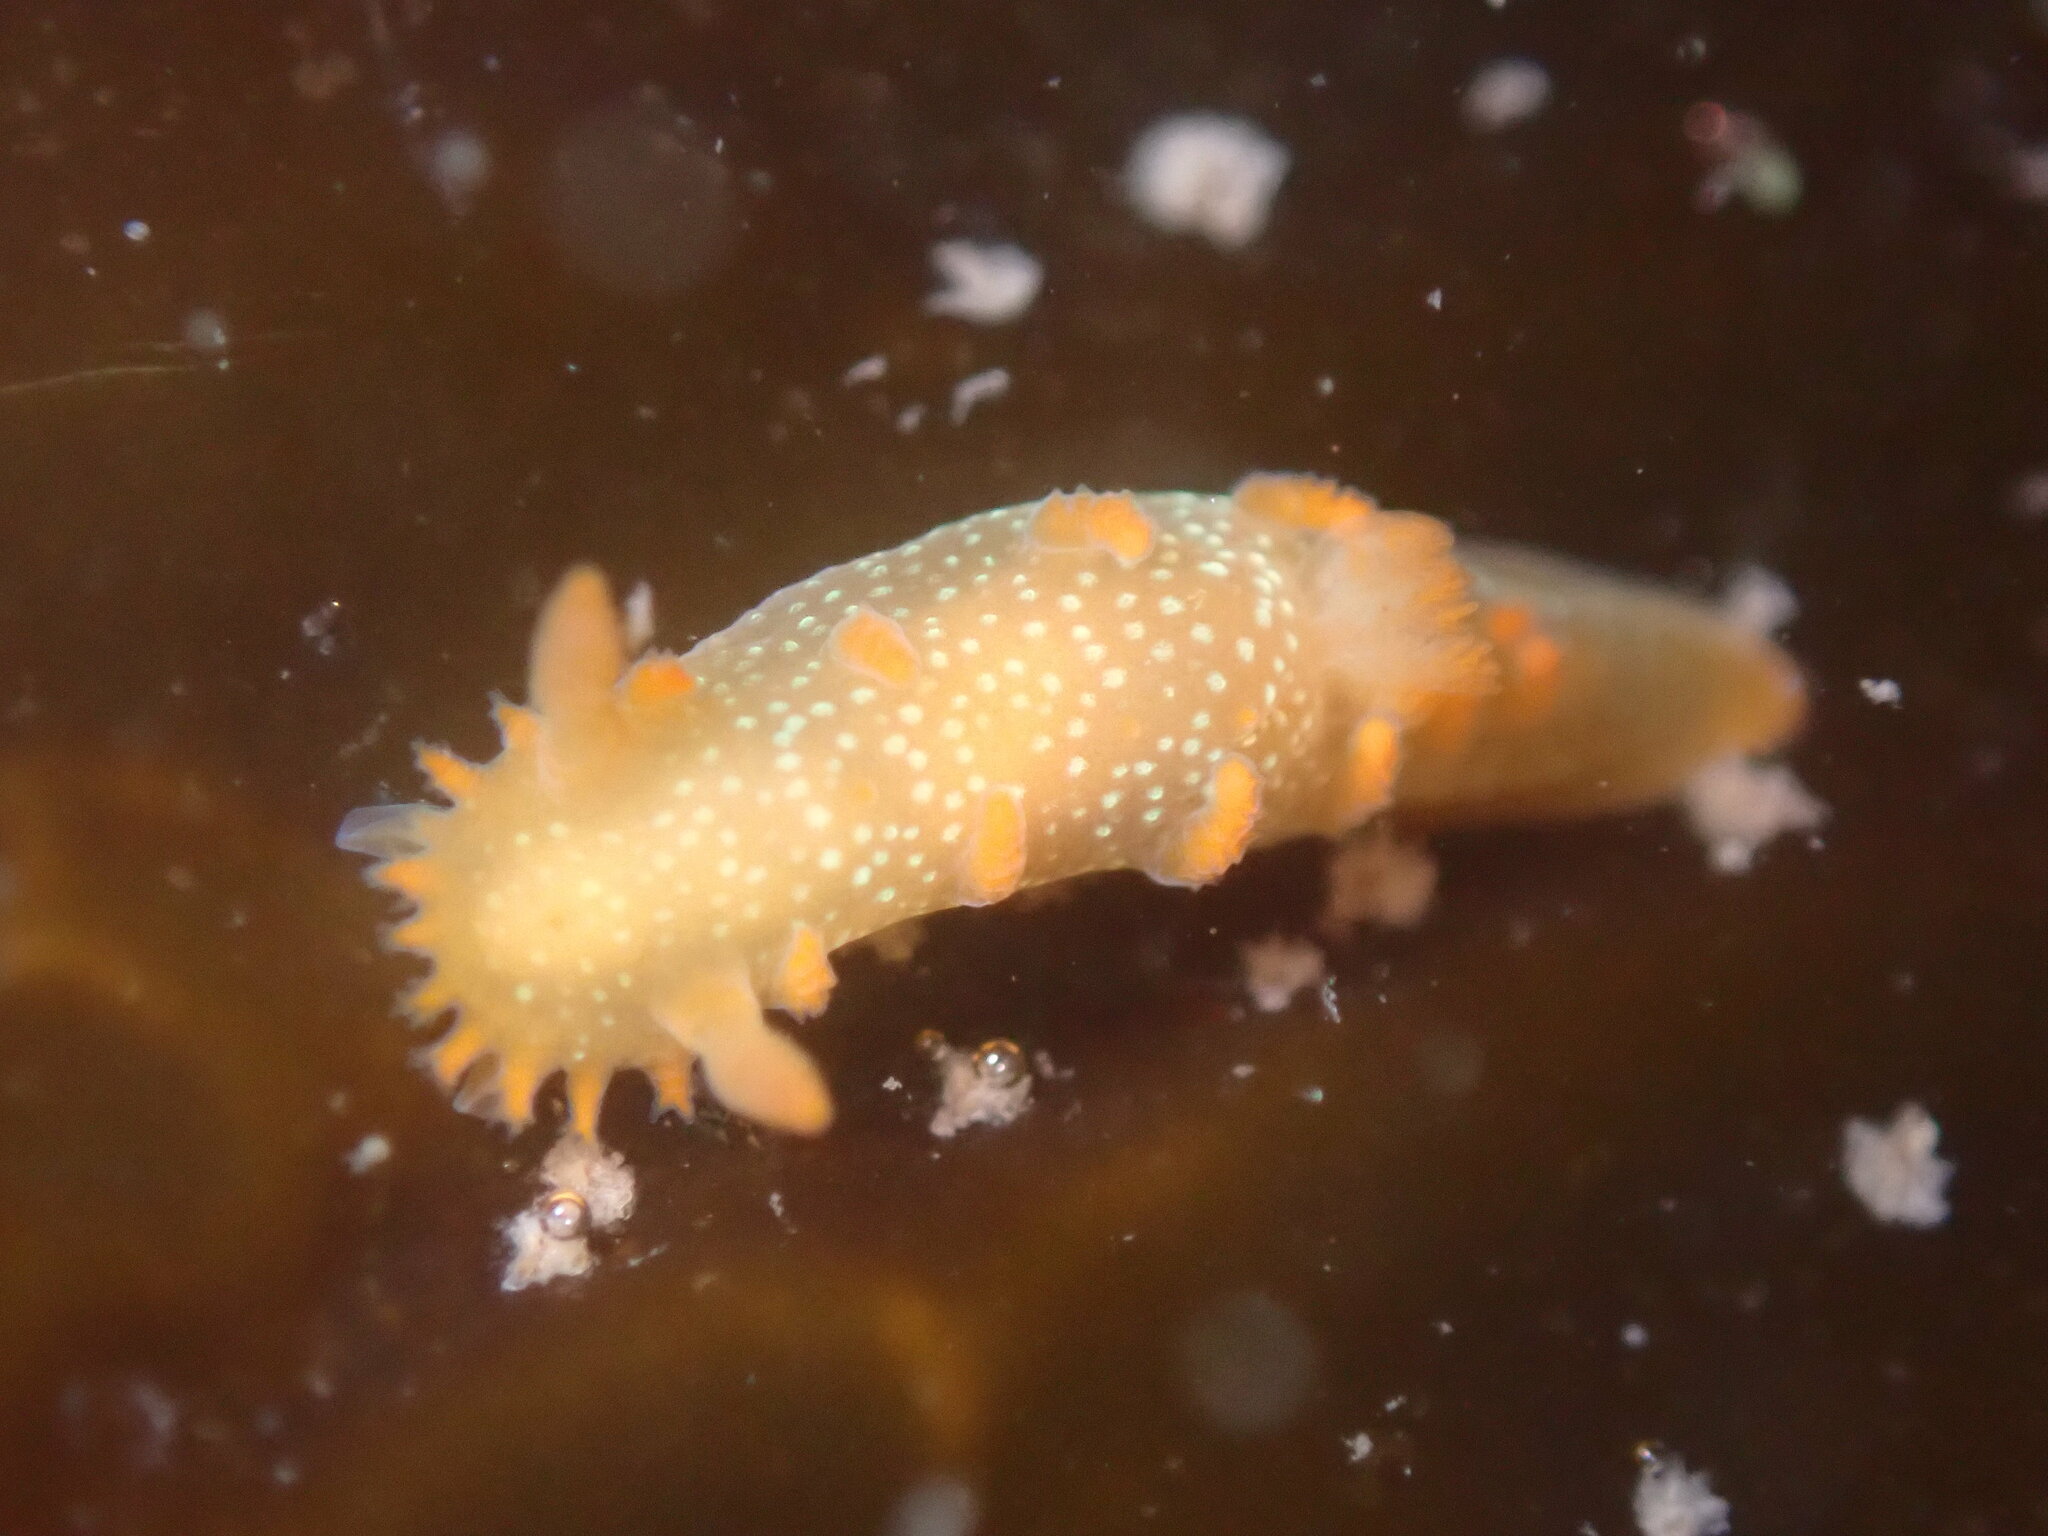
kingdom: Animalia
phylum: Mollusca
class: Gastropoda
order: Nudibranchia
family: Polyceridae
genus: Triopha
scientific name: Triopha maculata
